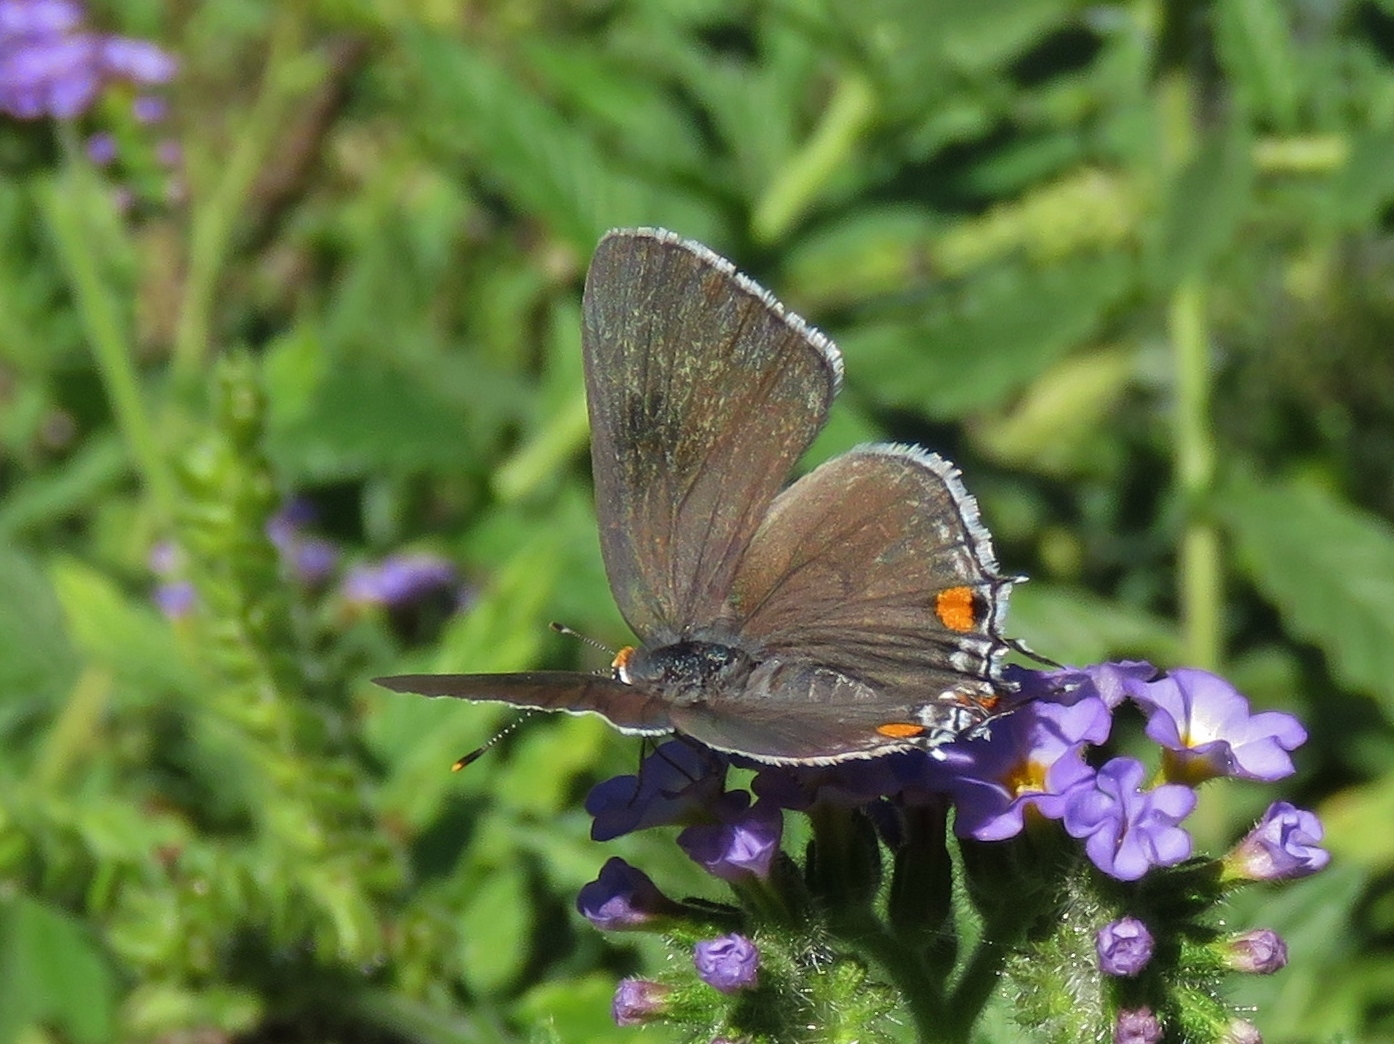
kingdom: Animalia
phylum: Arthropoda
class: Insecta
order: Lepidoptera
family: Lycaenidae
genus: Strymon
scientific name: Strymon melinus
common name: Gray hairstreak
